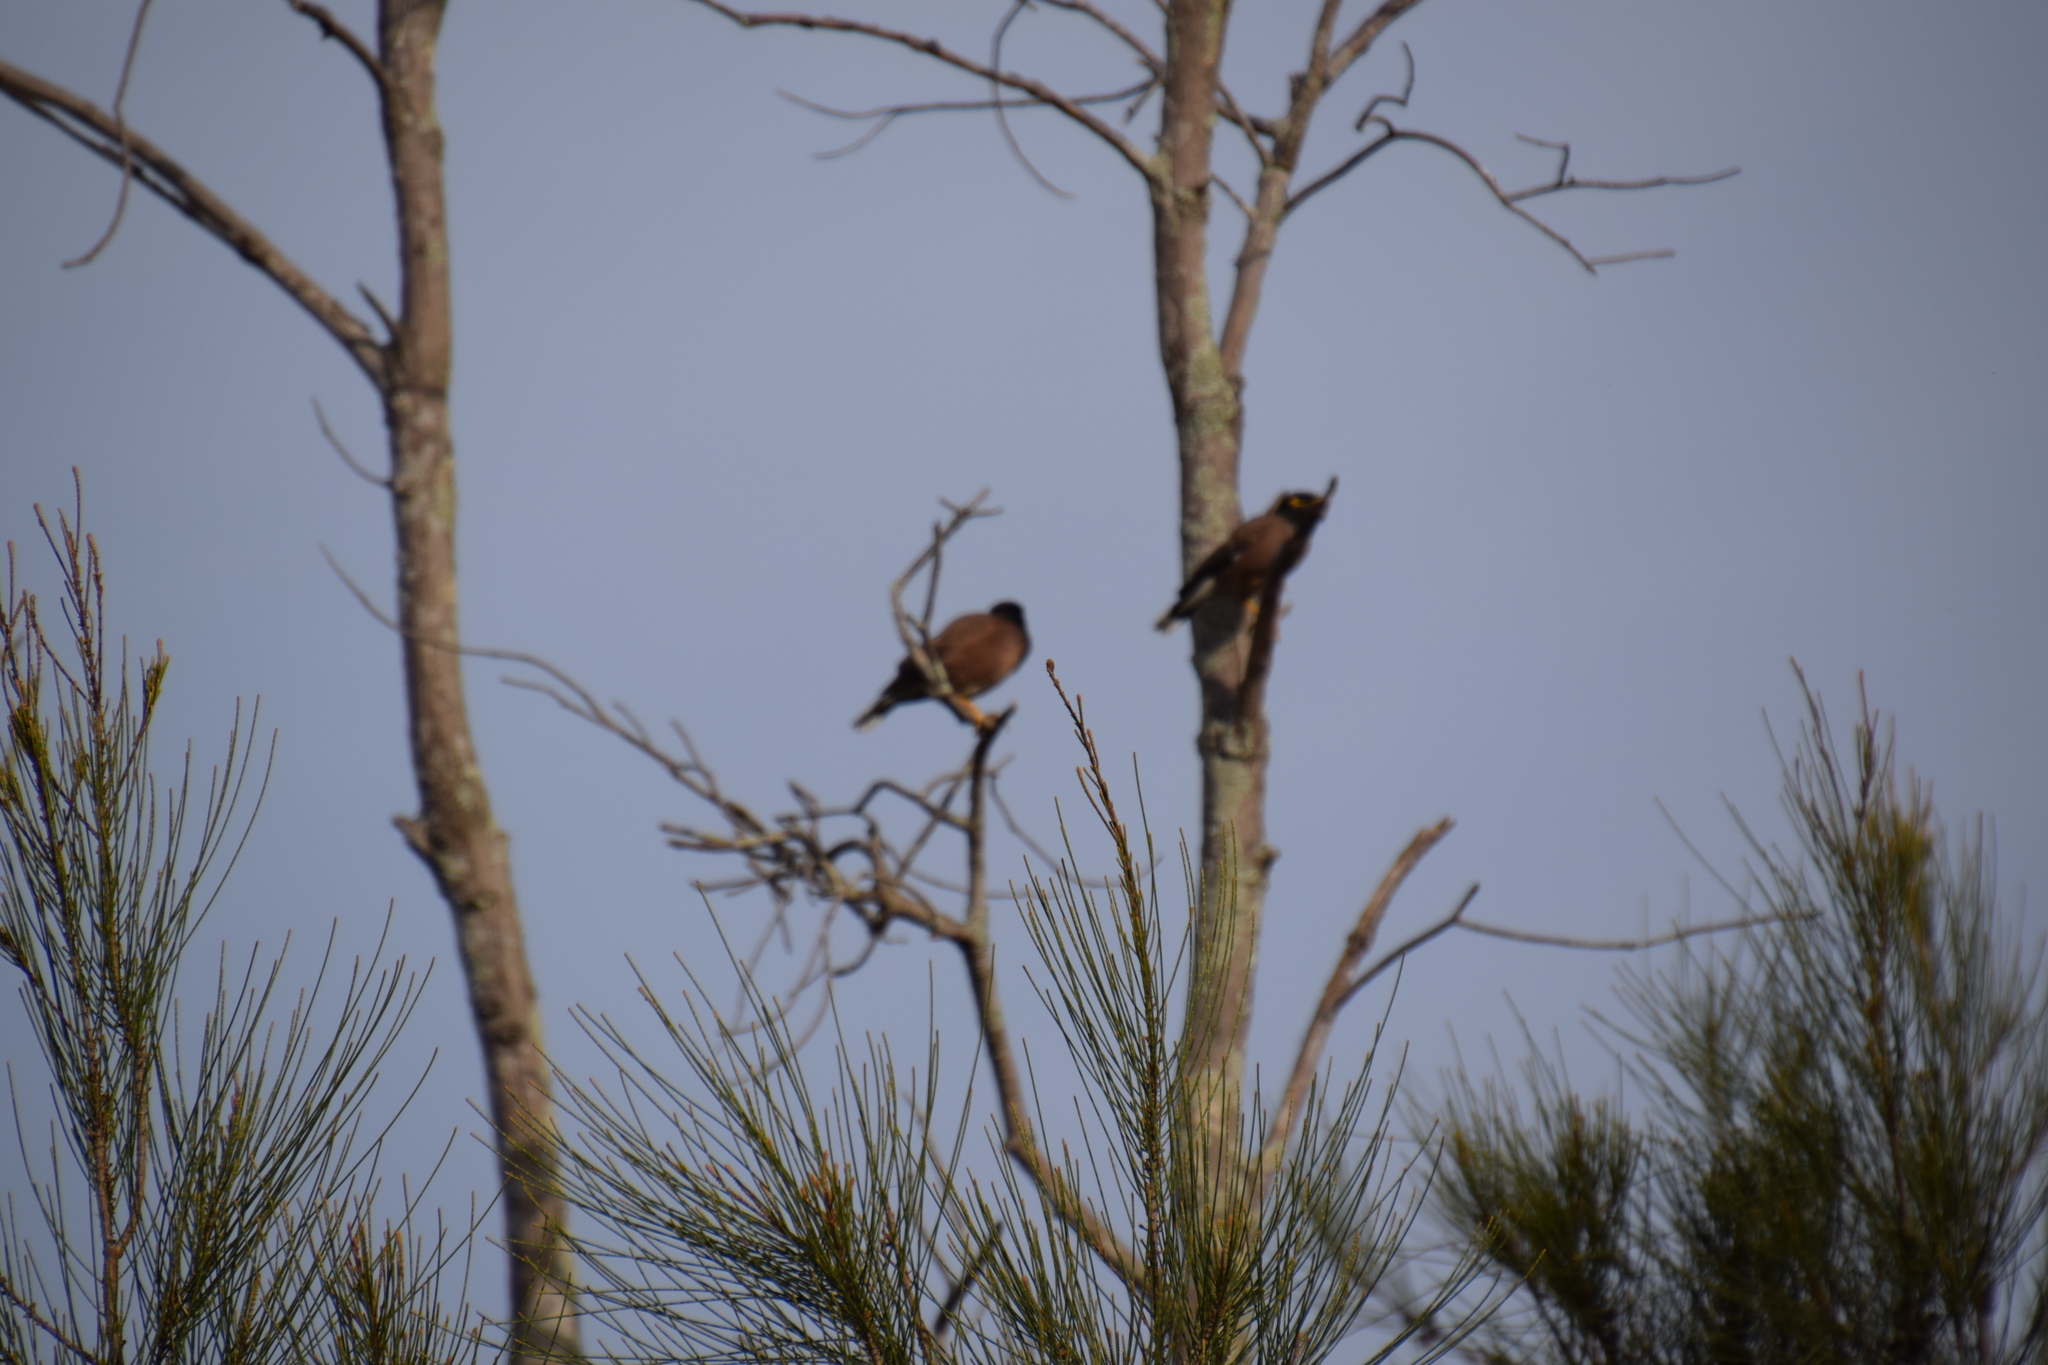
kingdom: Animalia
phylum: Chordata
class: Aves
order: Passeriformes
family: Sturnidae
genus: Acridotheres
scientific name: Acridotheres tristis
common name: Common myna
